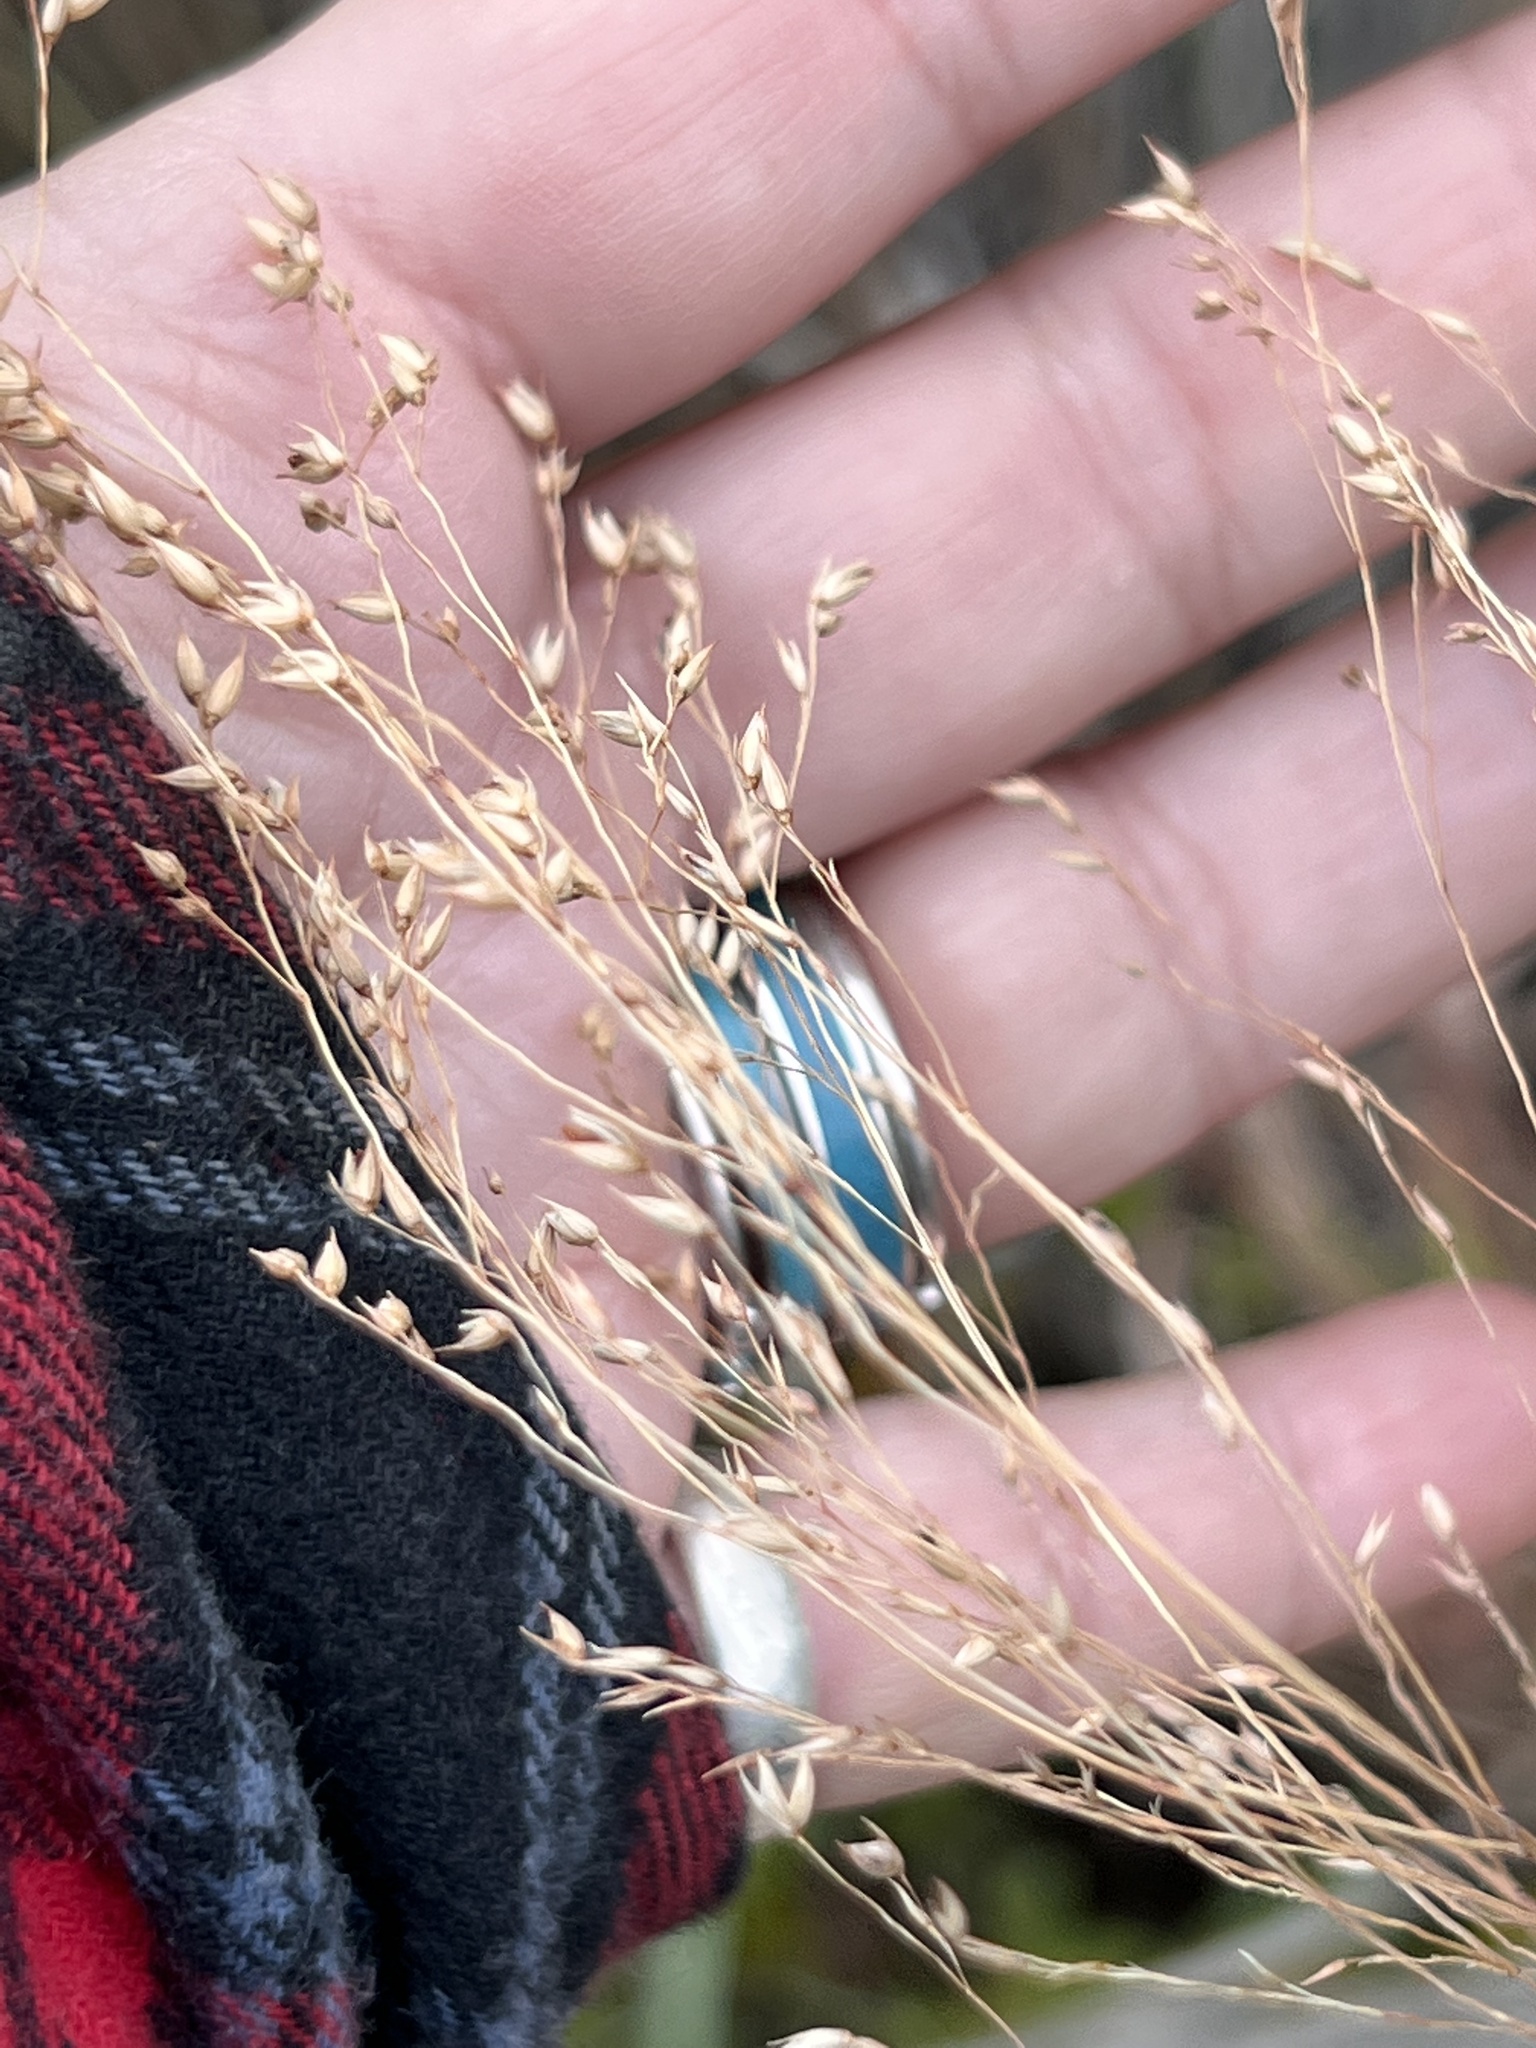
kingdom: Plantae
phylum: Tracheophyta
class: Liliopsida
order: Poales
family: Poaceae
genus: Panicum
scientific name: Panicum virgatum
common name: Switchgrass
